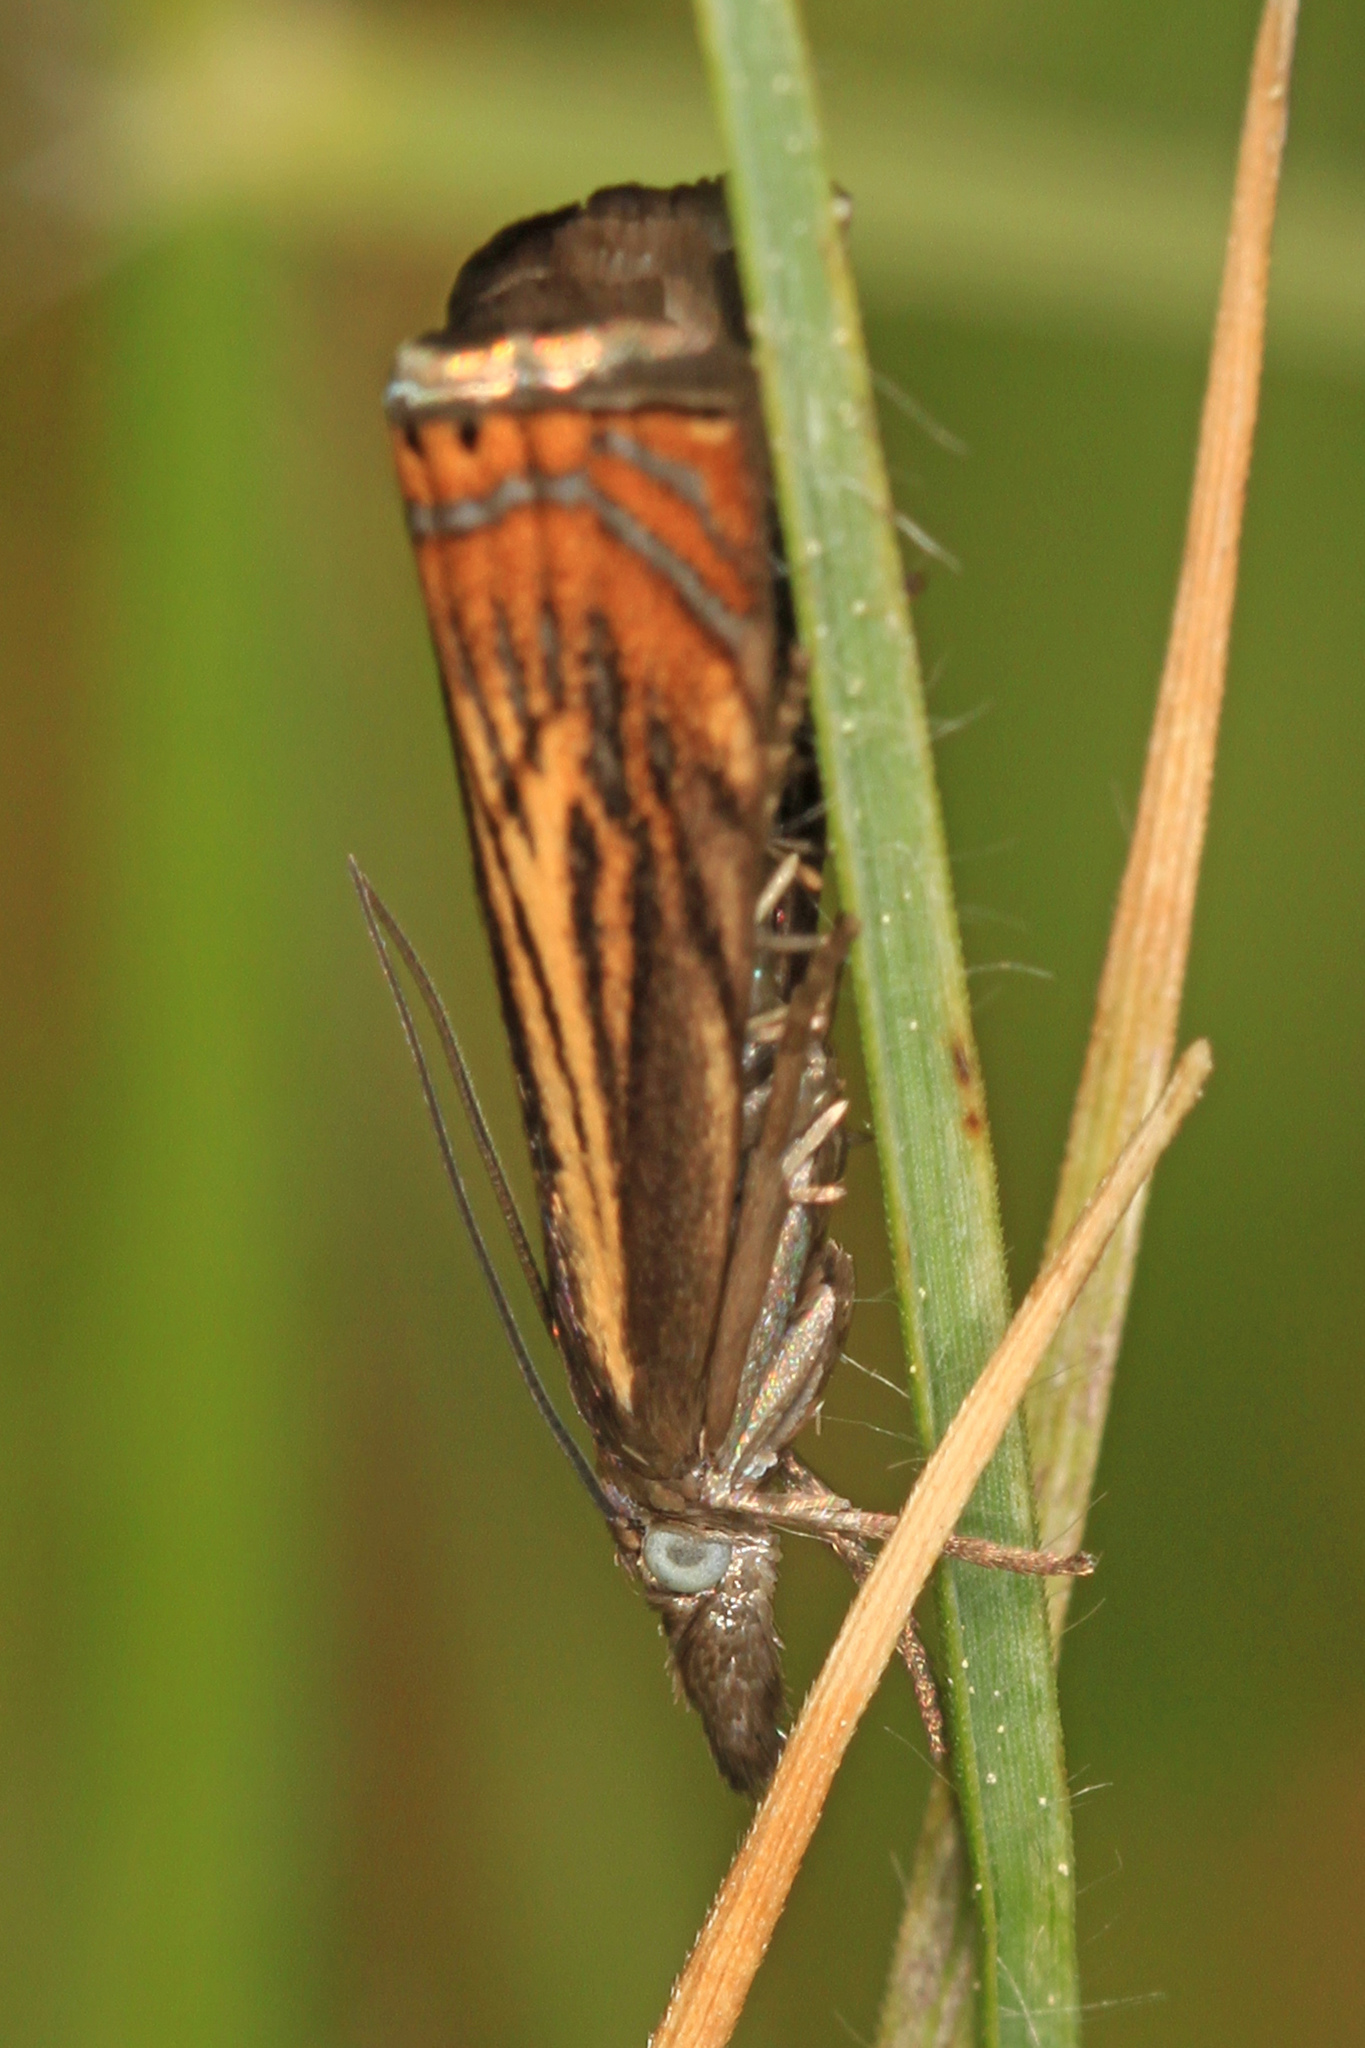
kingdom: Animalia
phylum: Arthropoda
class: Insecta
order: Lepidoptera
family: Crambidae
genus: Chrysoteuchia
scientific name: Chrysoteuchia topiarius
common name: Topiary grass-veneer
